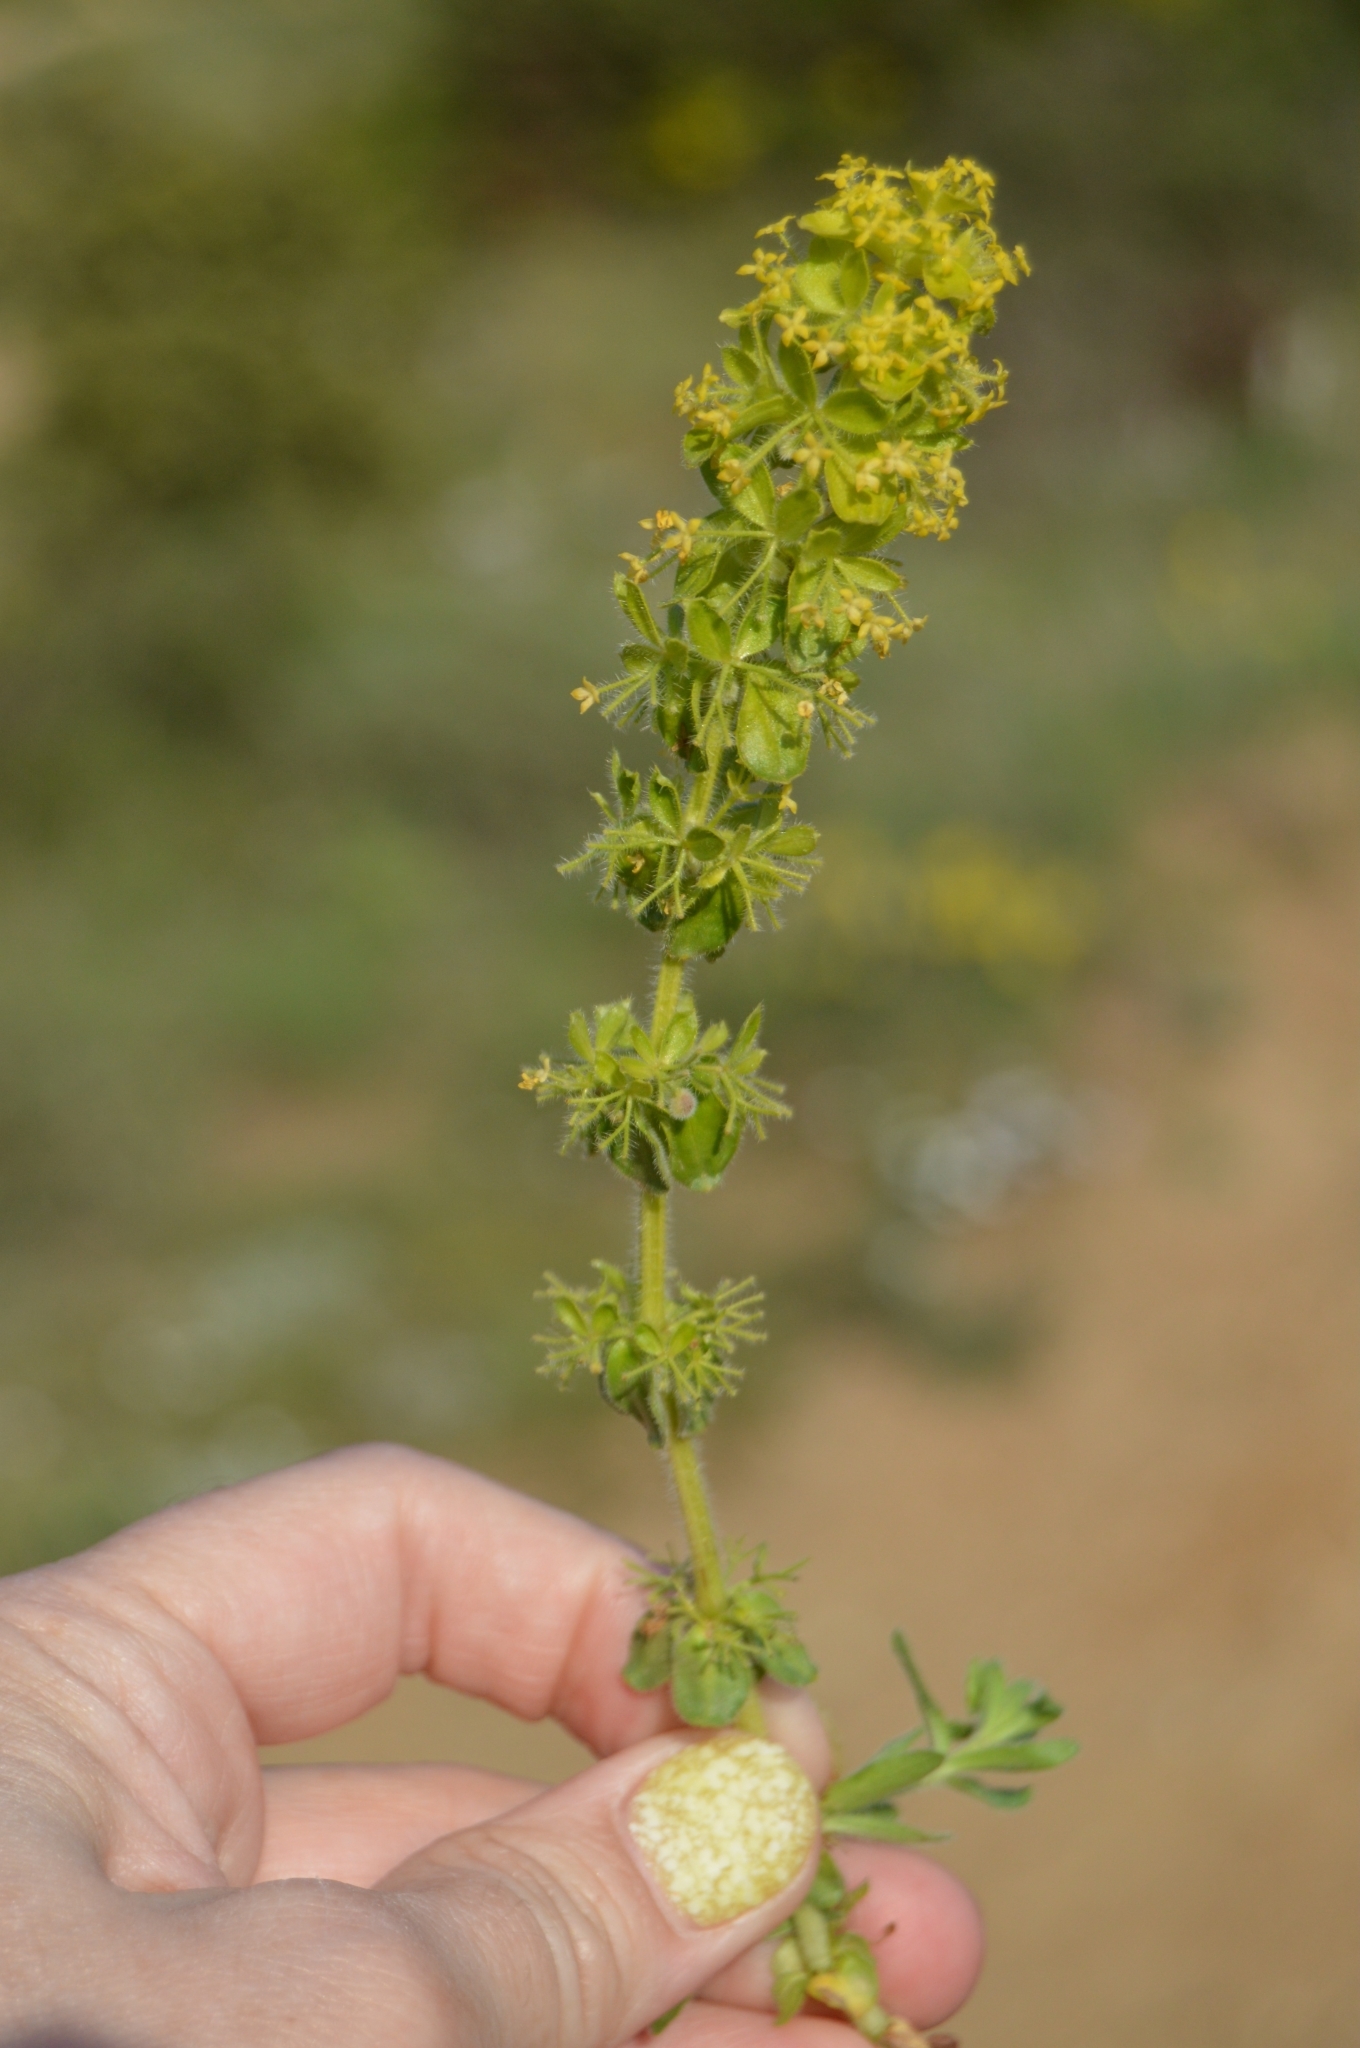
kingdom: Plantae
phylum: Tracheophyta
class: Magnoliopsida
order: Gentianales
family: Rubiaceae
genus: Cruciata
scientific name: Cruciata taurica
